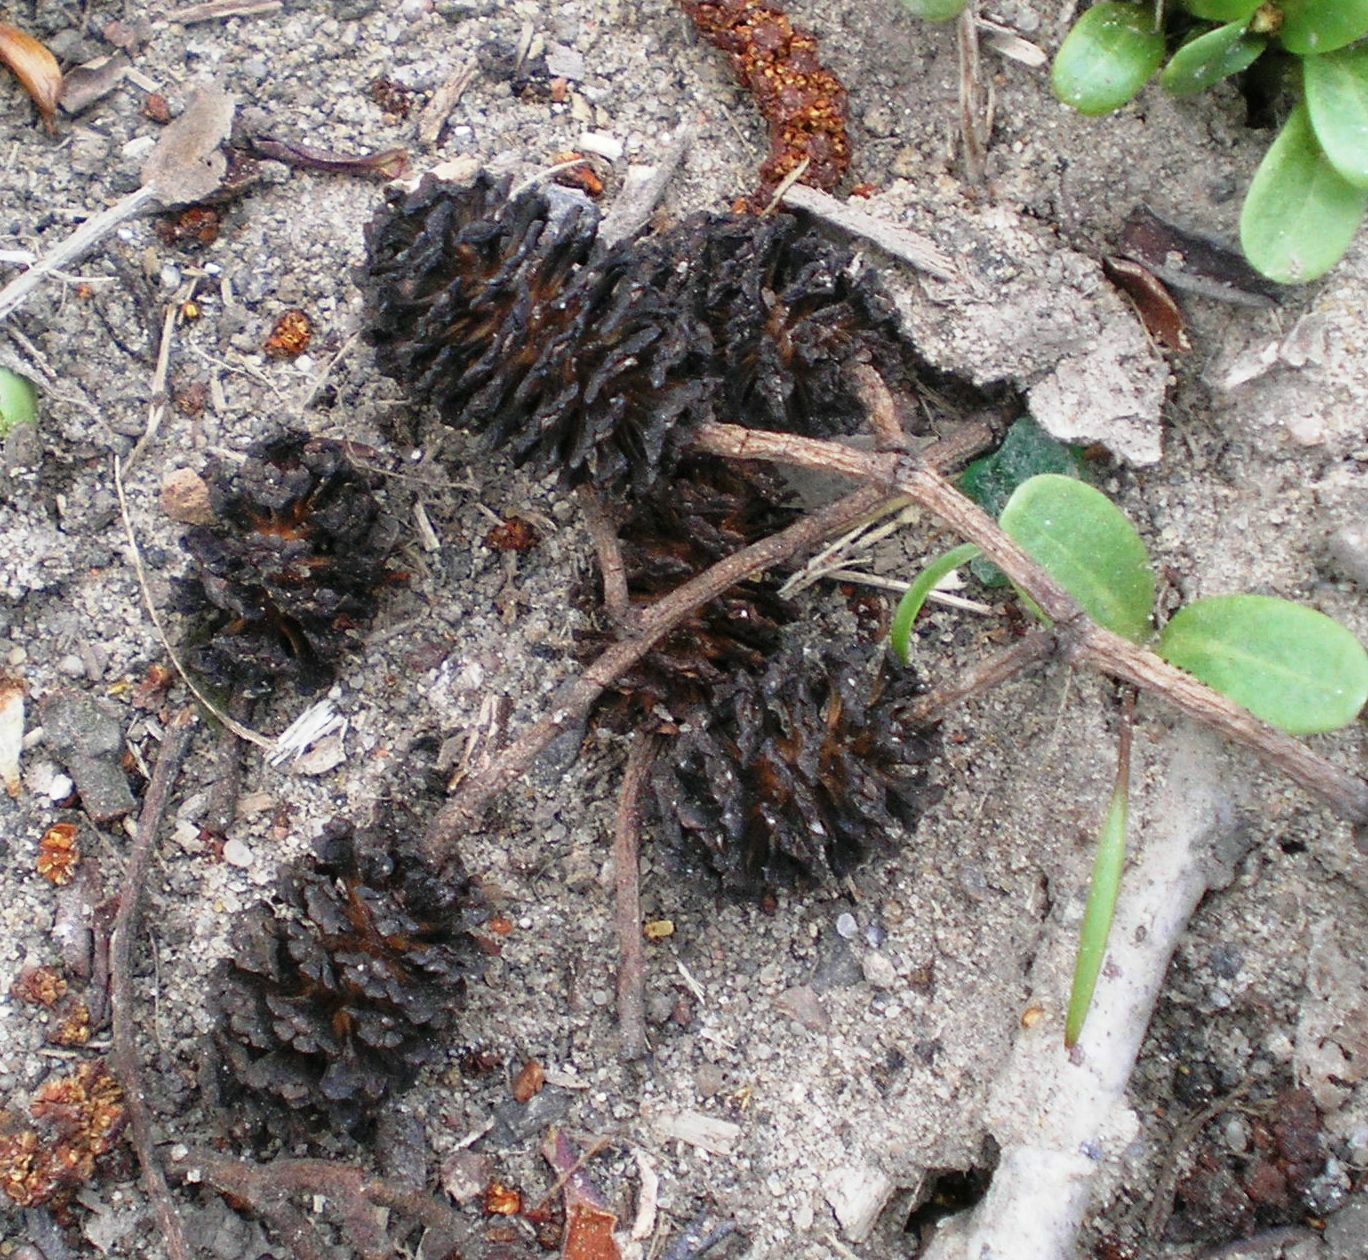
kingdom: Plantae
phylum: Tracheophyta
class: Magnoliopsida
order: Fagales
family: Betulaceae
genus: Alnus
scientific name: Alnus glutinosa
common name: Black alder
